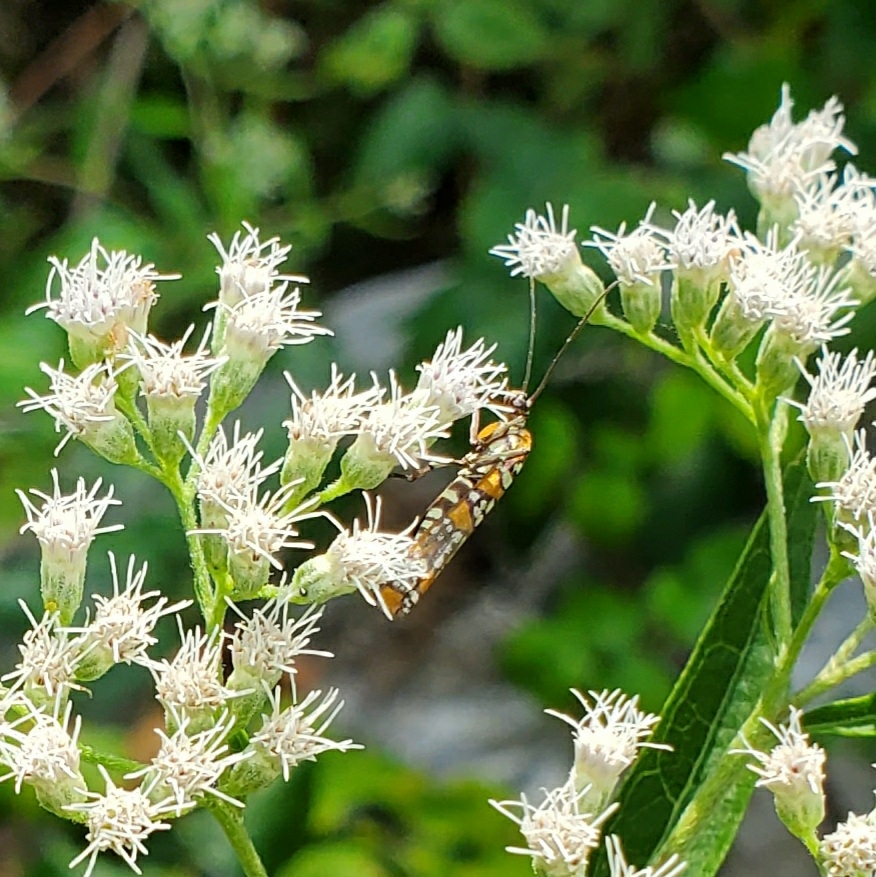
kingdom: Animalia
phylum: Arthropoda
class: Insecta
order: Lepidoptera
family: Attevidae
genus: Atteva
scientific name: Atteva punctella
